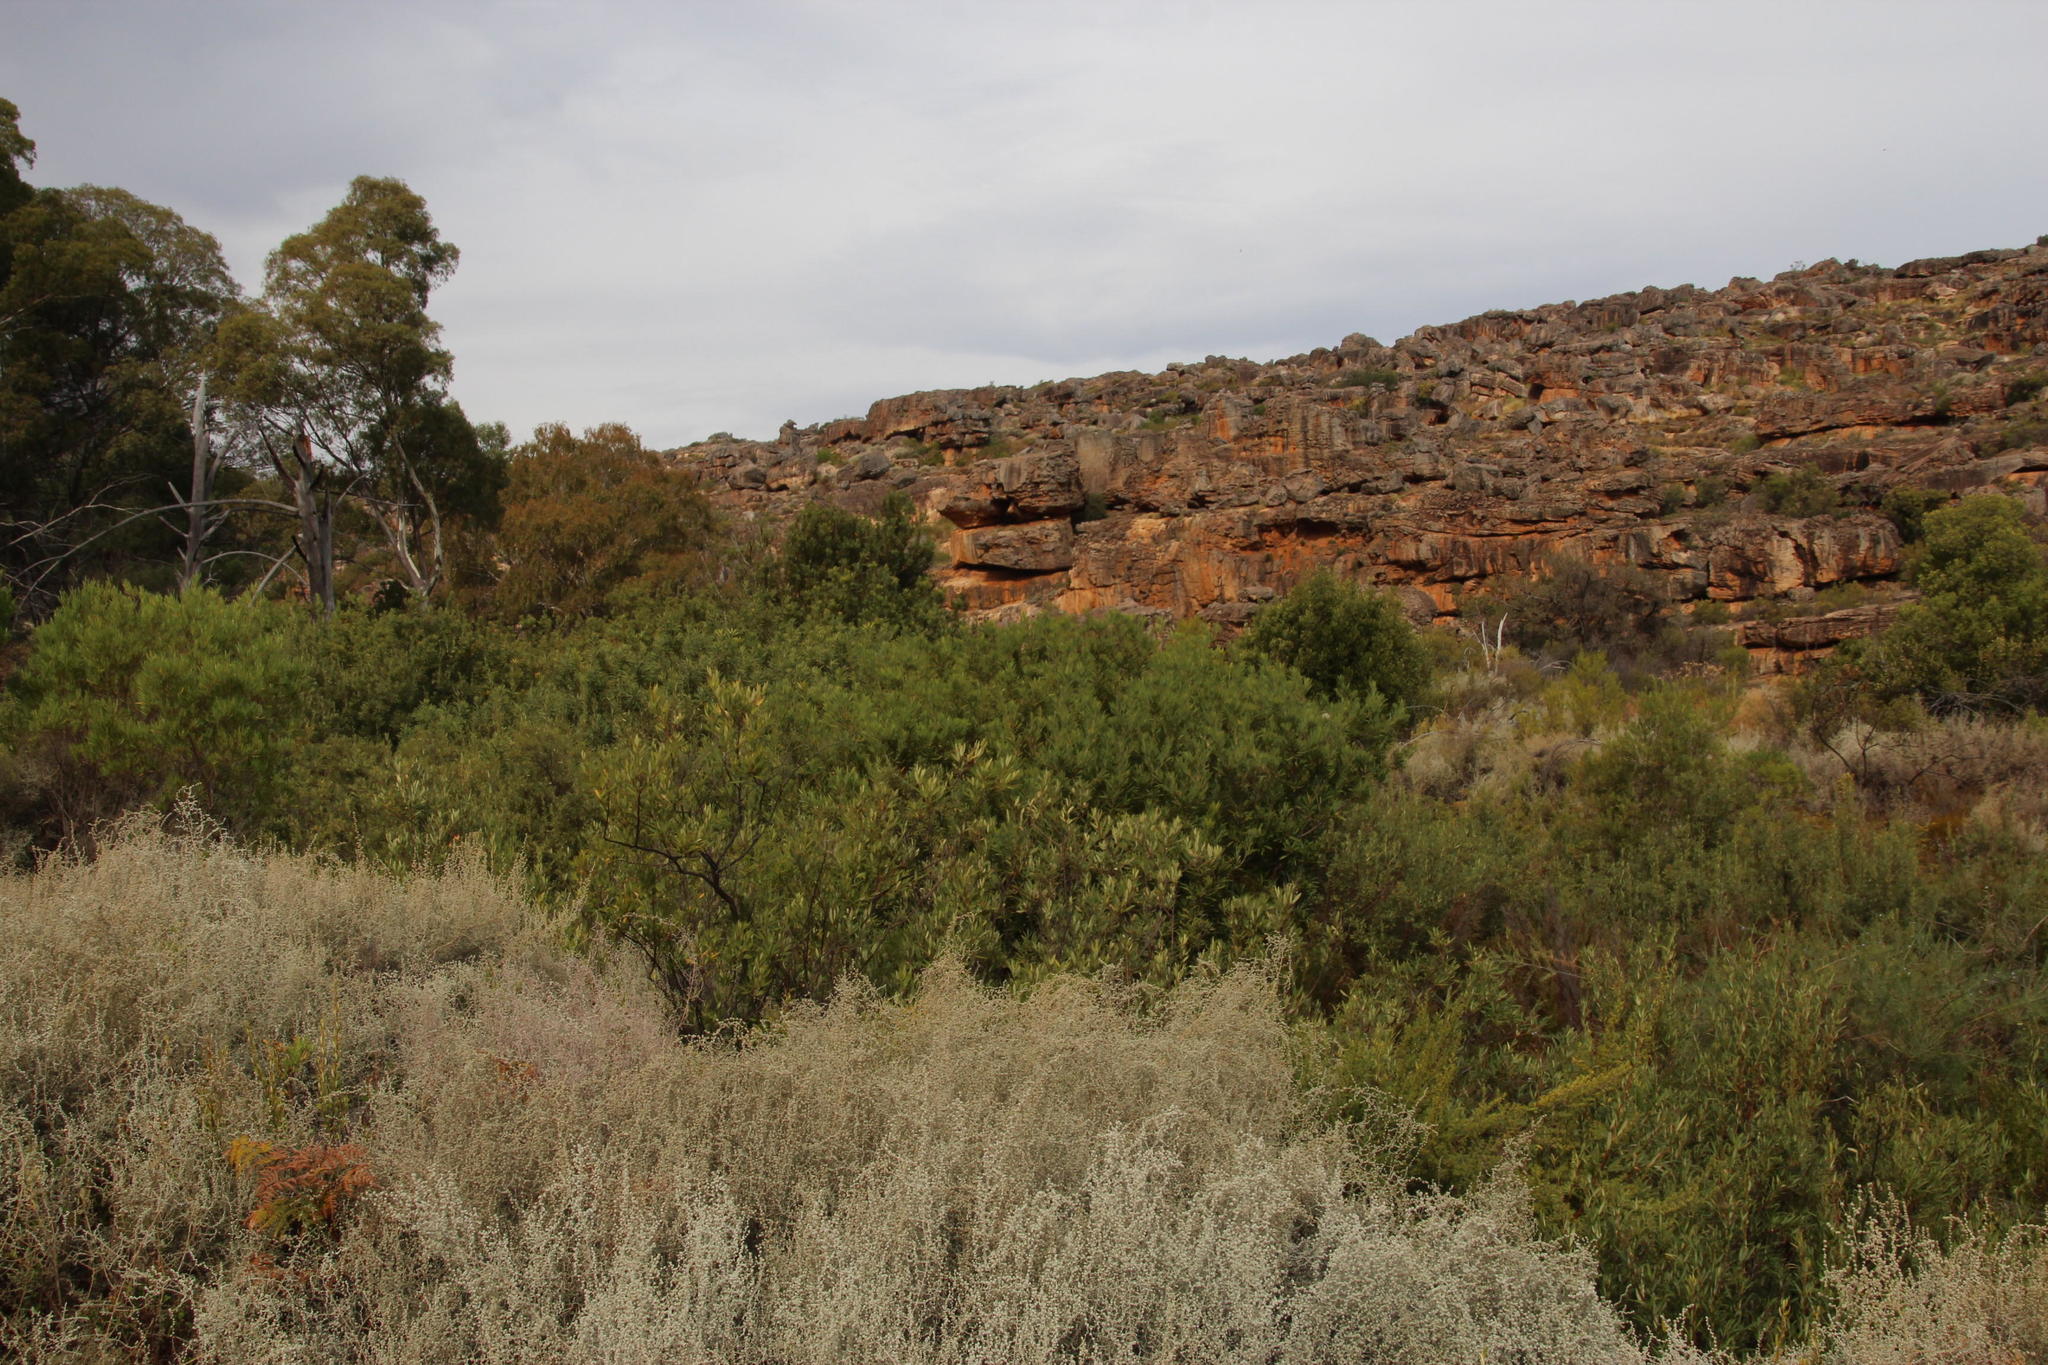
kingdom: Plantae
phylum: Tracheophyta
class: Magnoliopsida
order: Proteales
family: Proteaceae
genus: Brabejum
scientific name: Brabejum stellatifolium
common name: Wild almond
